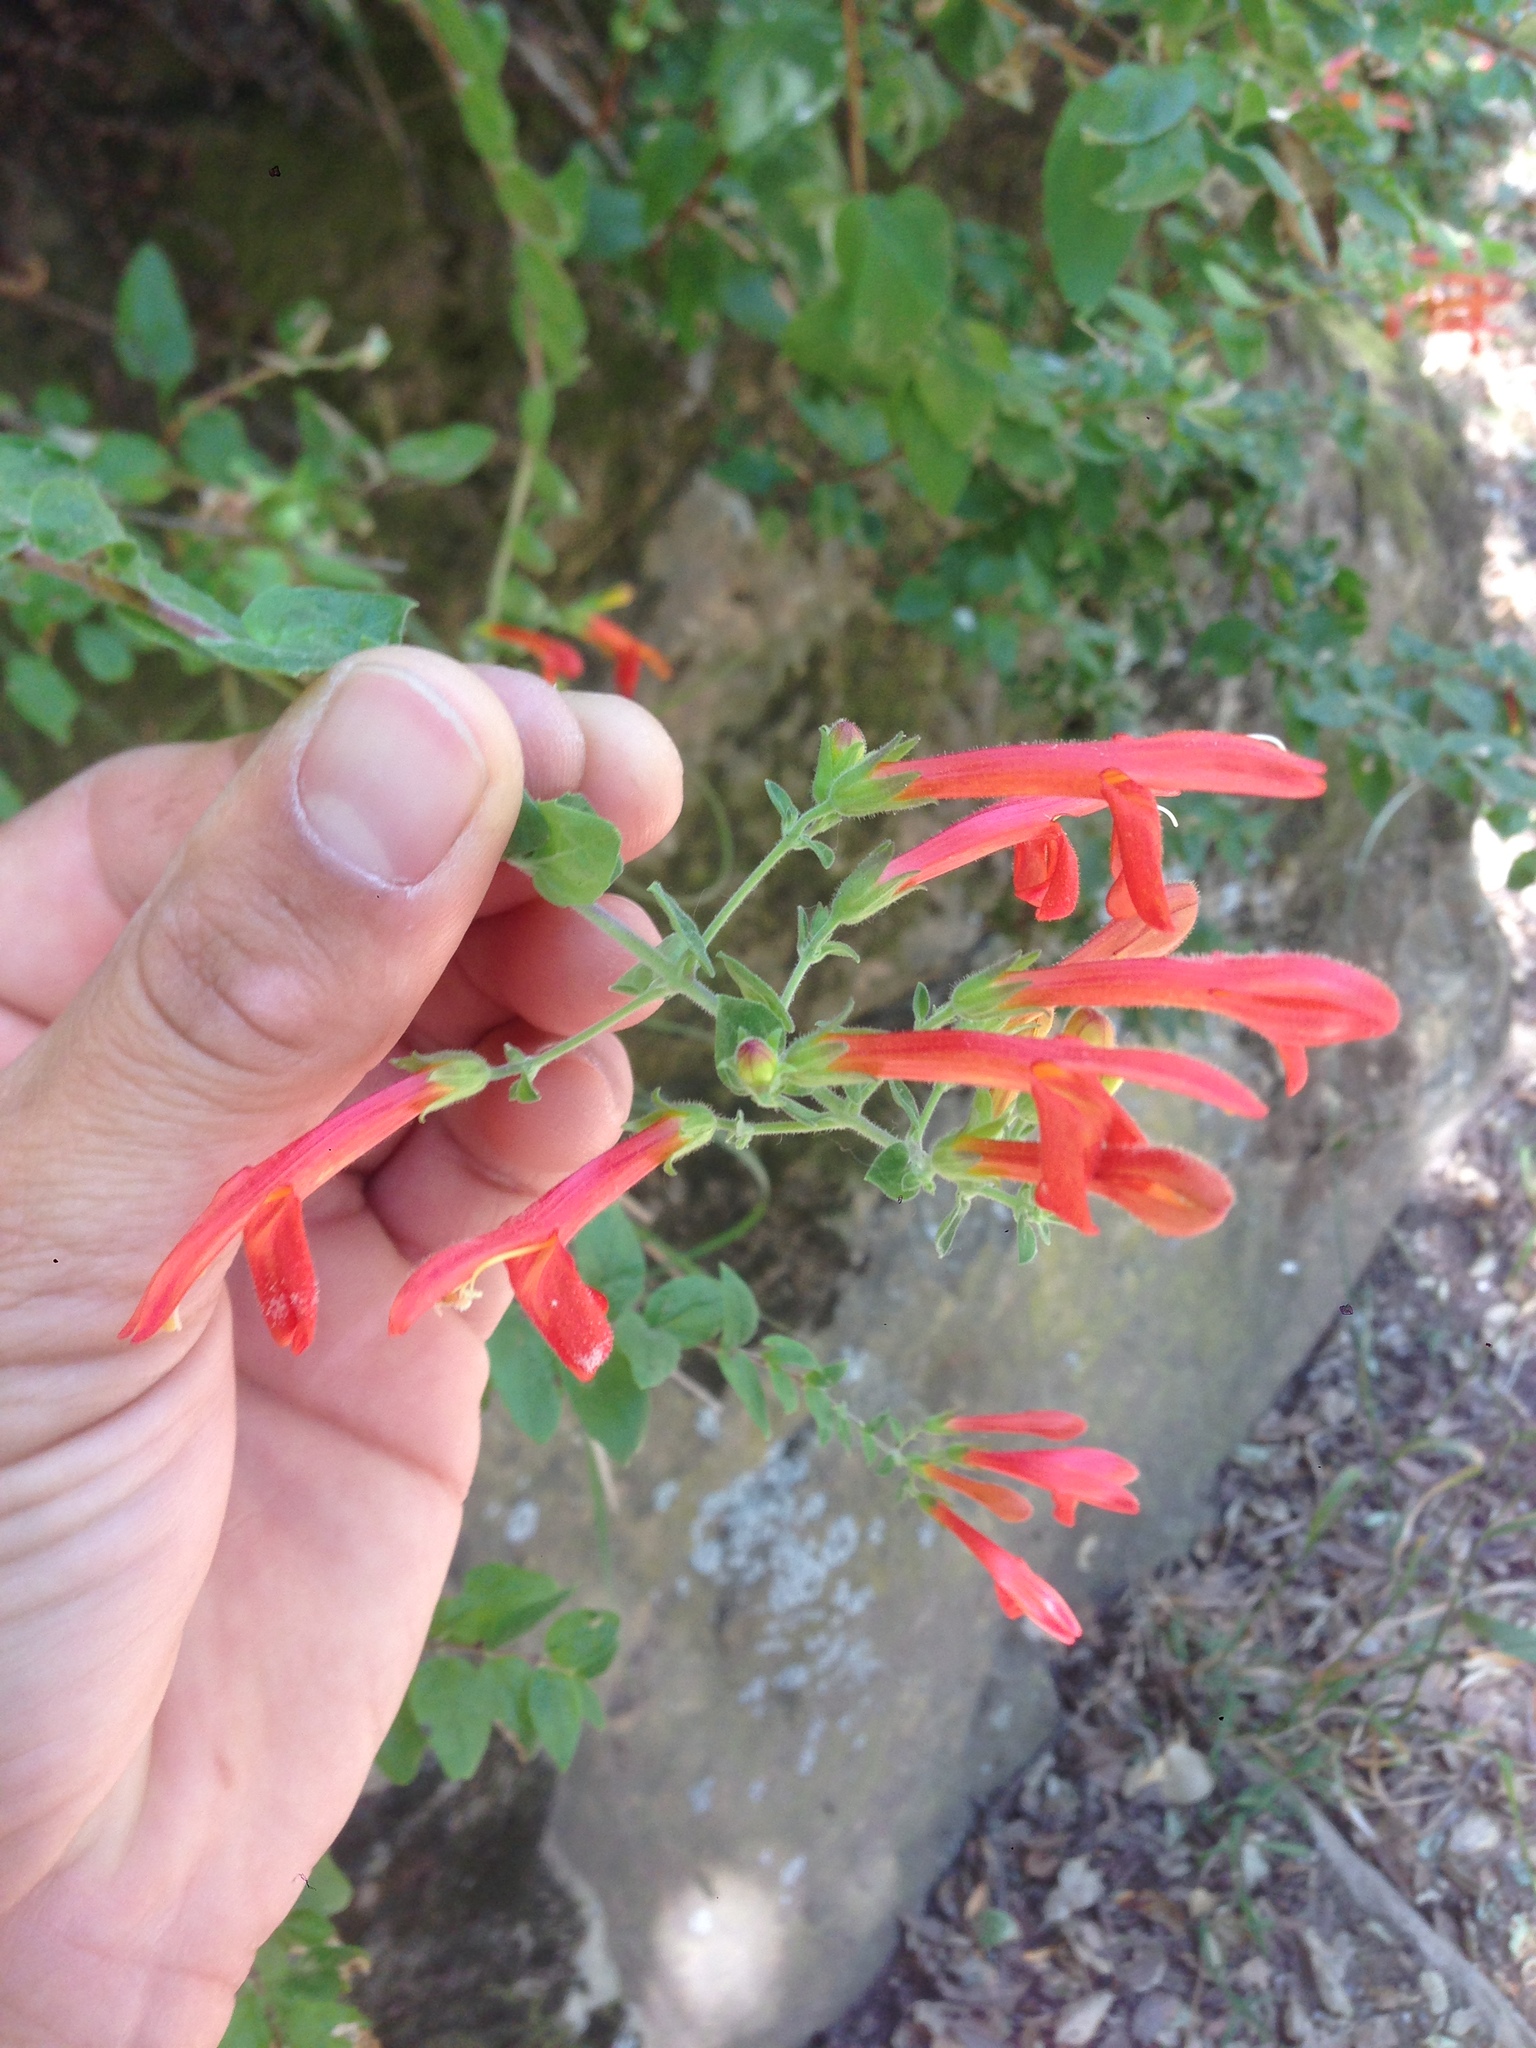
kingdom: Plantae
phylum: Tracheophyta
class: Magnoliopsida
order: Lamiales
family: Plantaginaceae
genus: Keckiella
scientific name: Keckiella cordifolia
